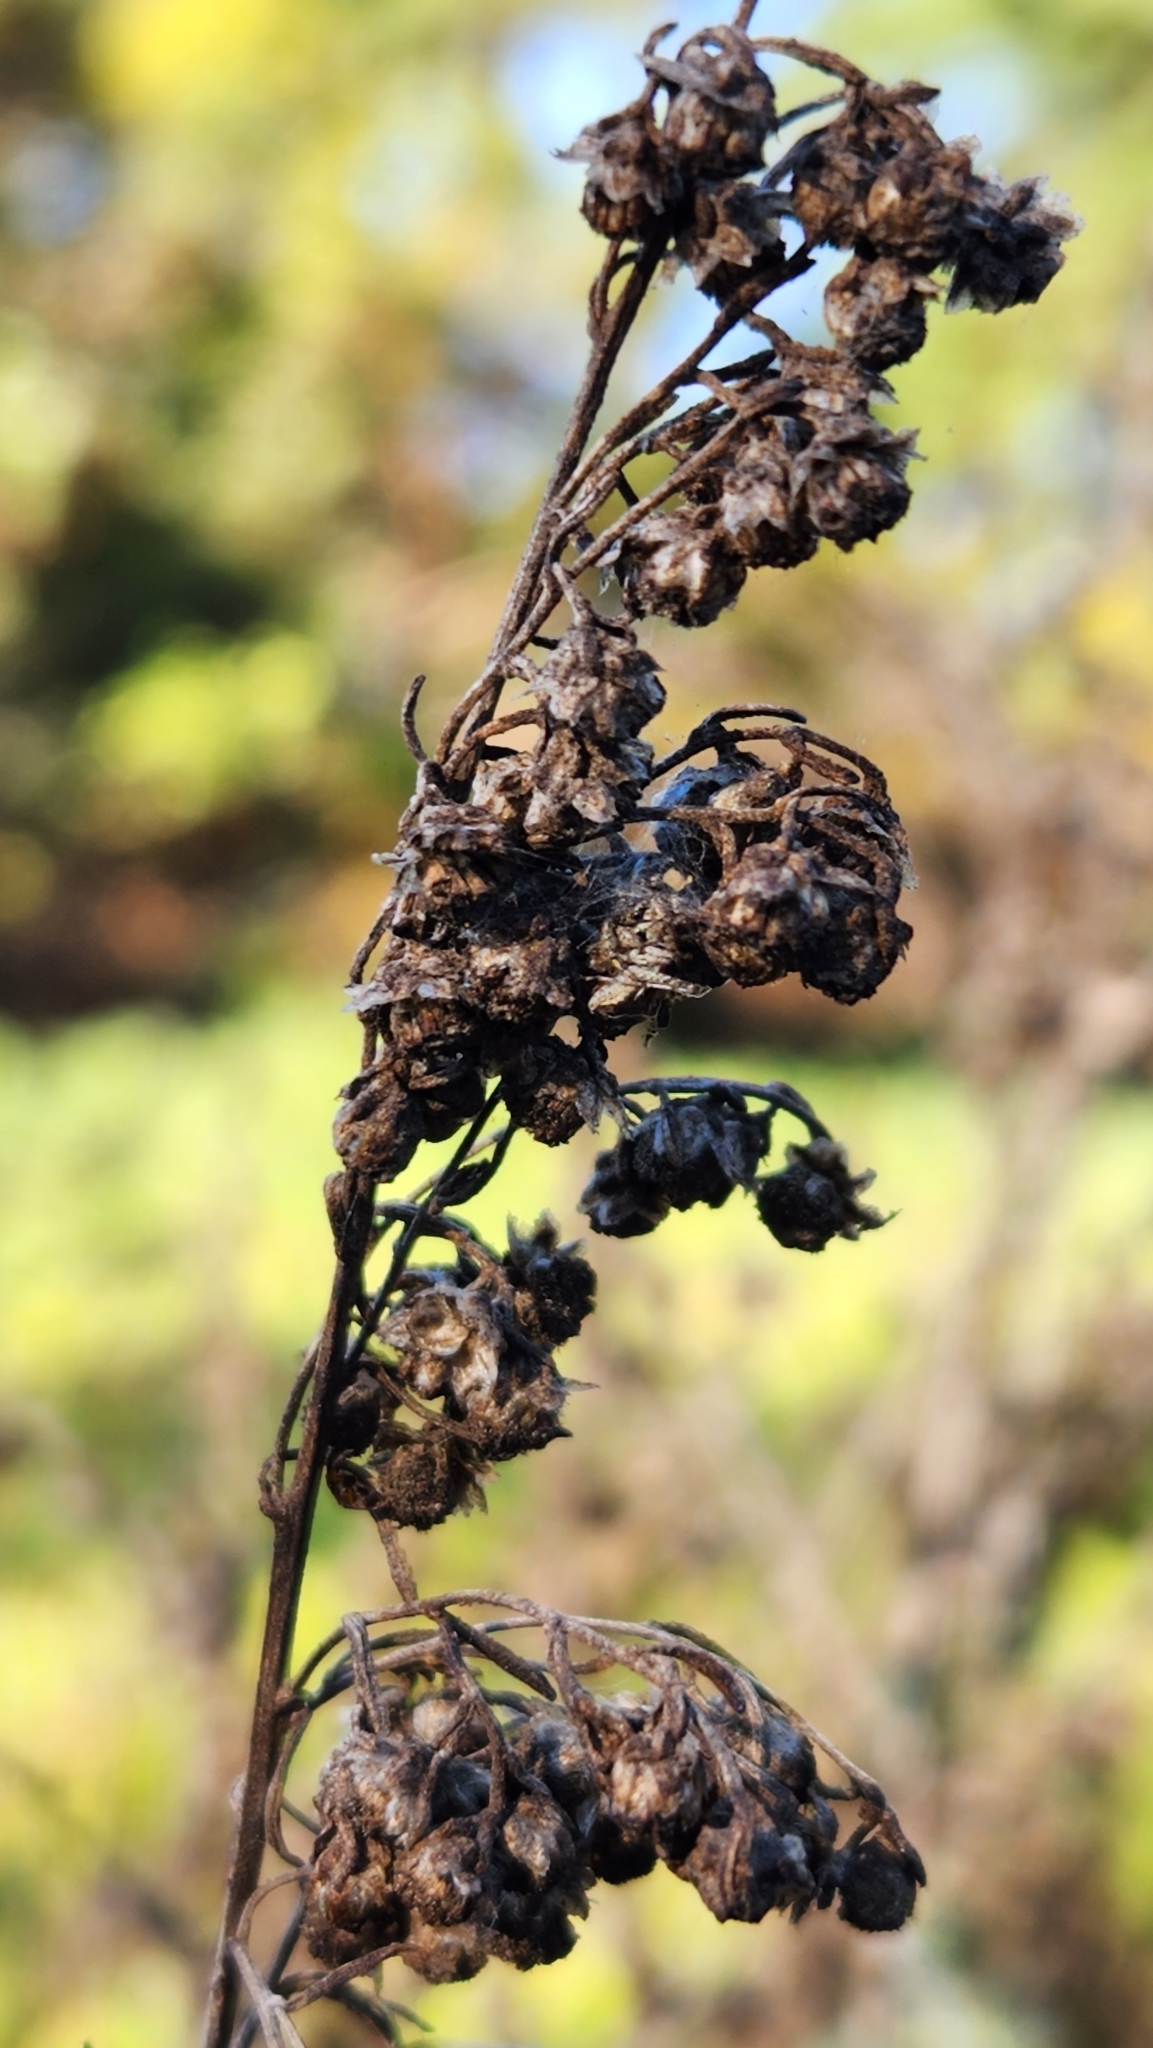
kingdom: Plantae
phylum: Tracheophyta
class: Magnoliopsida
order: Asterales
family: Asteraceae
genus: Artemisia
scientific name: Artemisia californica
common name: California sagebrush
